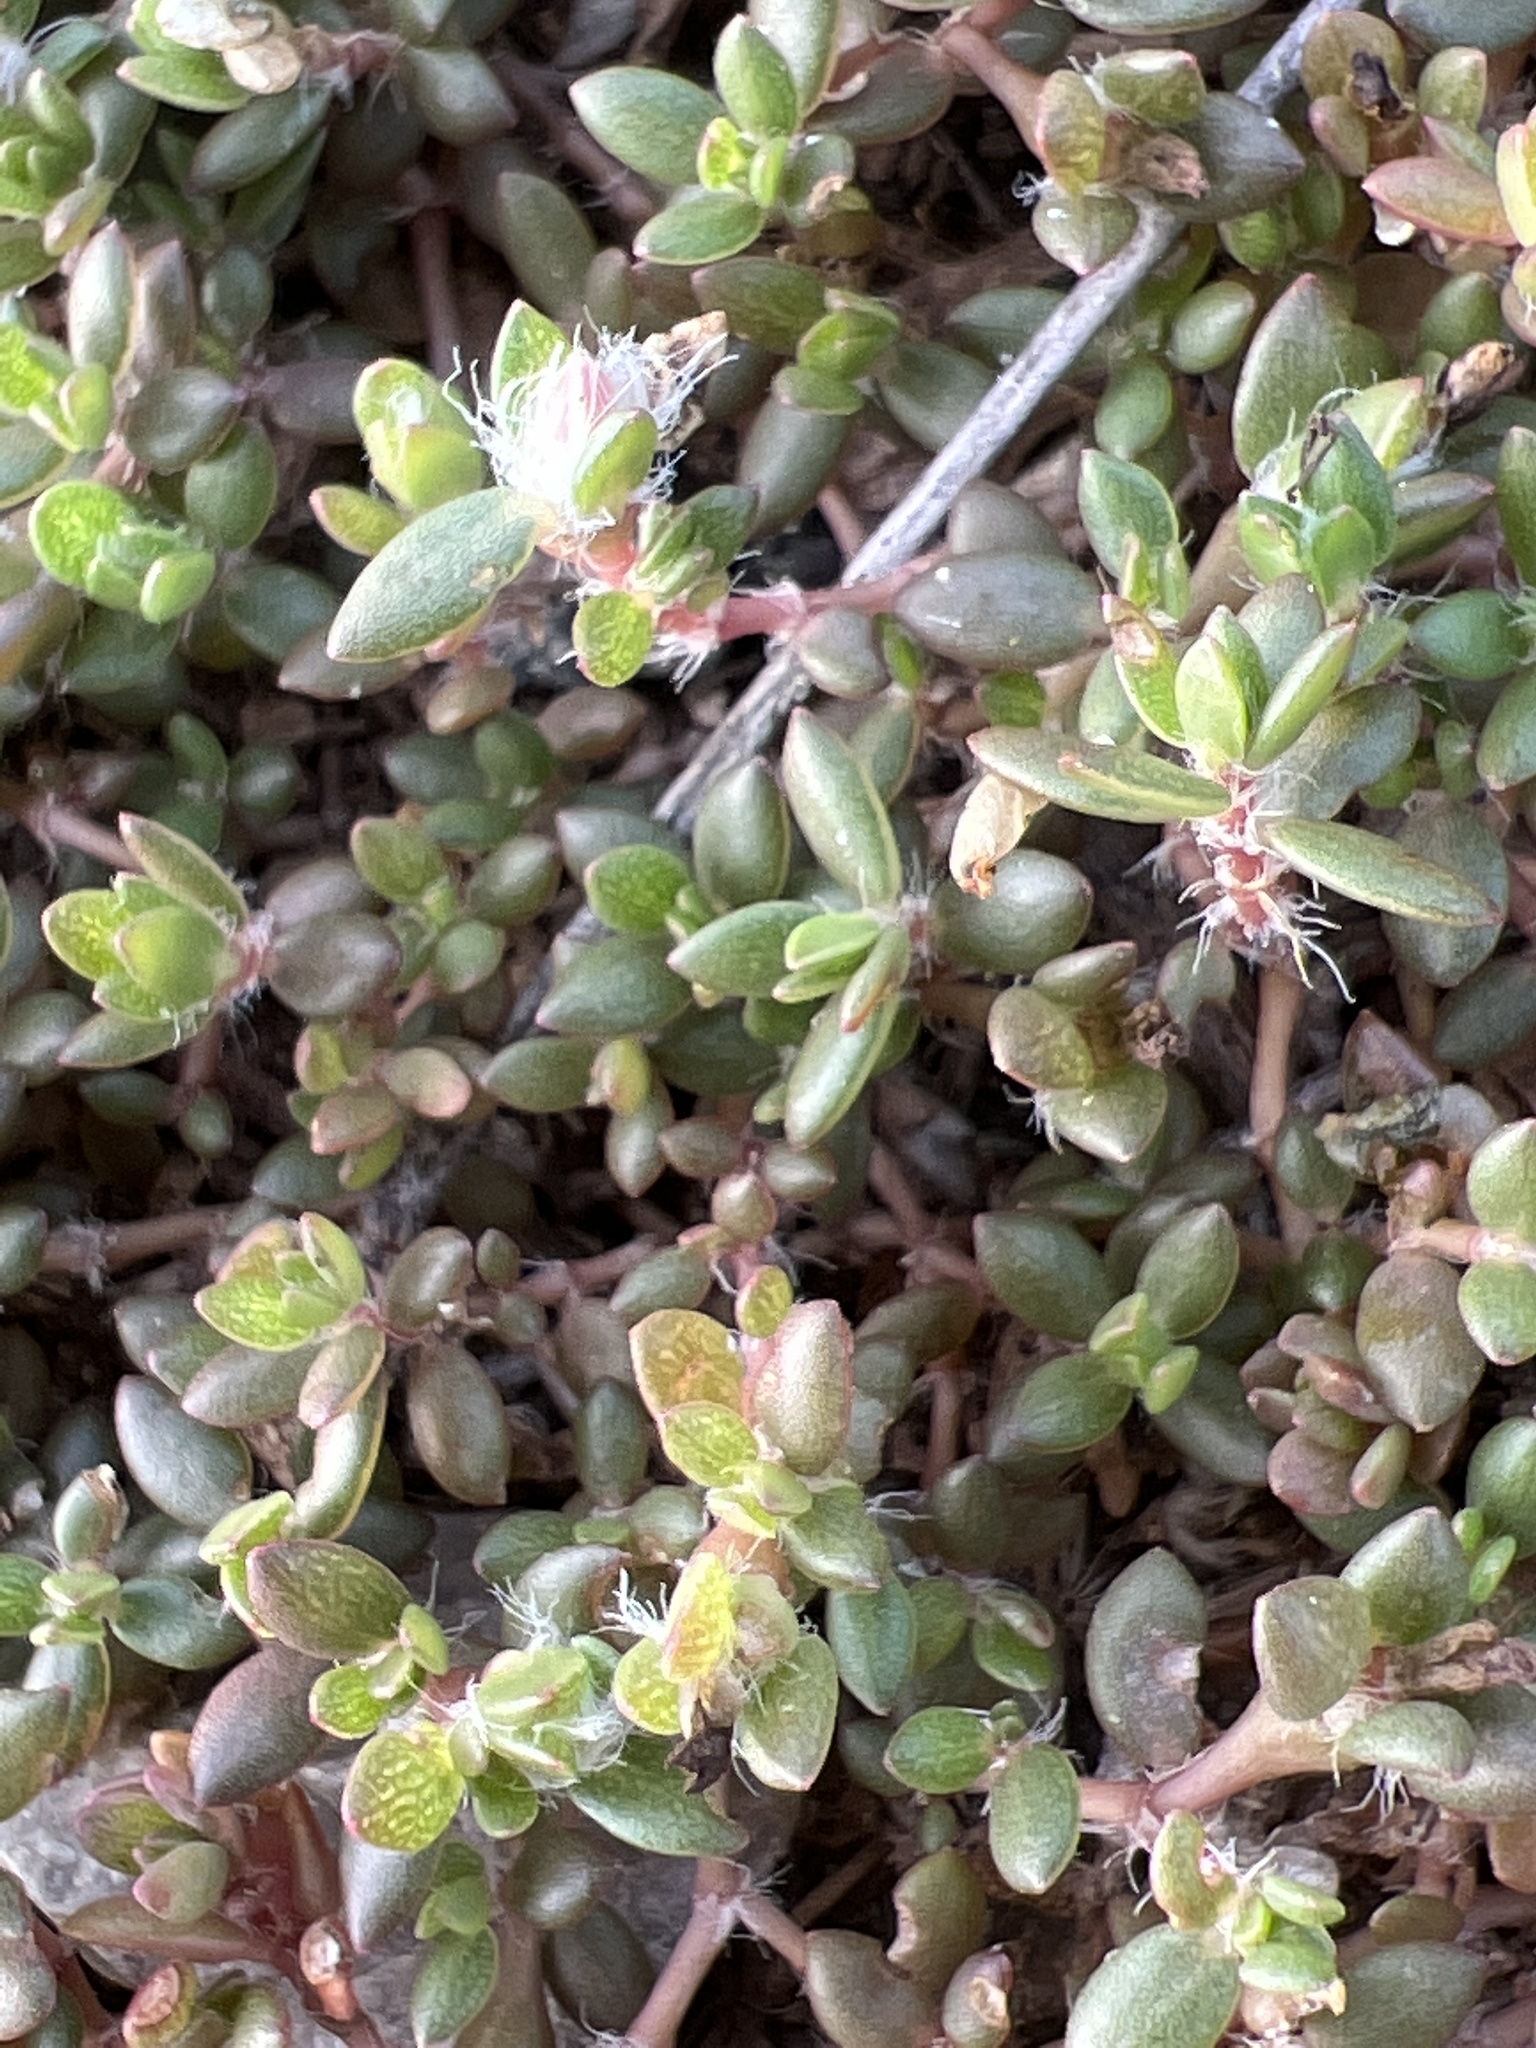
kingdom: Plantae
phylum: Tracheophyta
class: Magnoliopsida
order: Caryophyllales
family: Portulacaceae
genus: Portulaca
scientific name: Portulaca quadrifida
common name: Chickenweed
